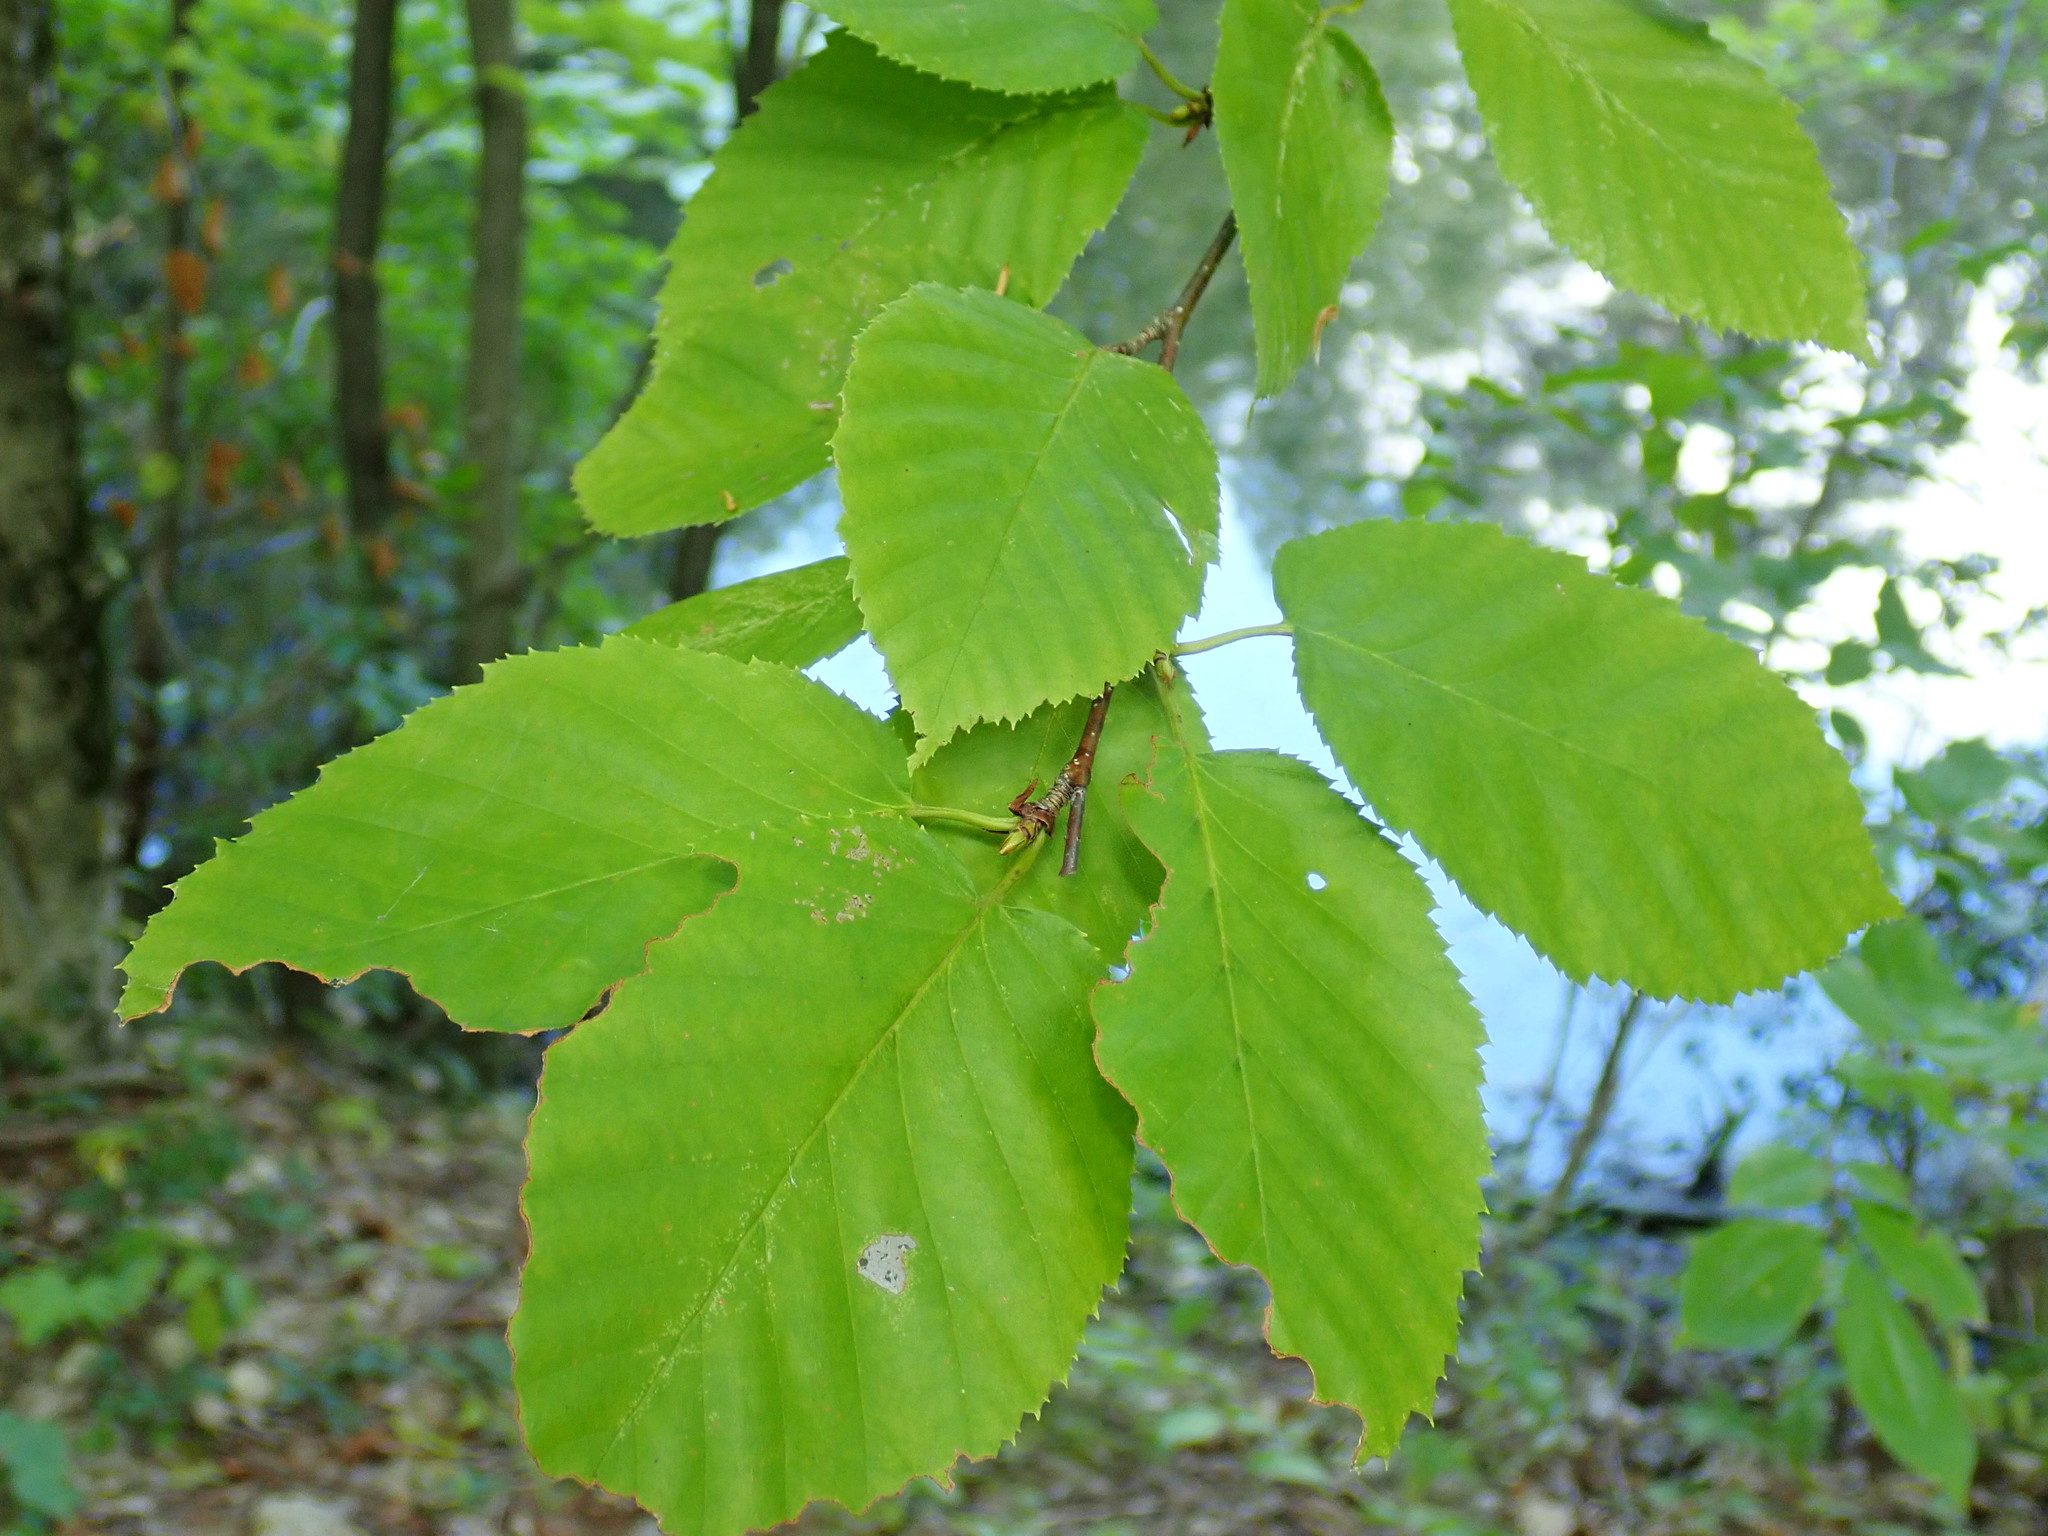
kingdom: Plantae
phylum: Tracheophyta
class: Magnoliopsida
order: Fagales
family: Betulaceae
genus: Betula
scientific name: Betula alleghaniensis
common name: Yellow birch
